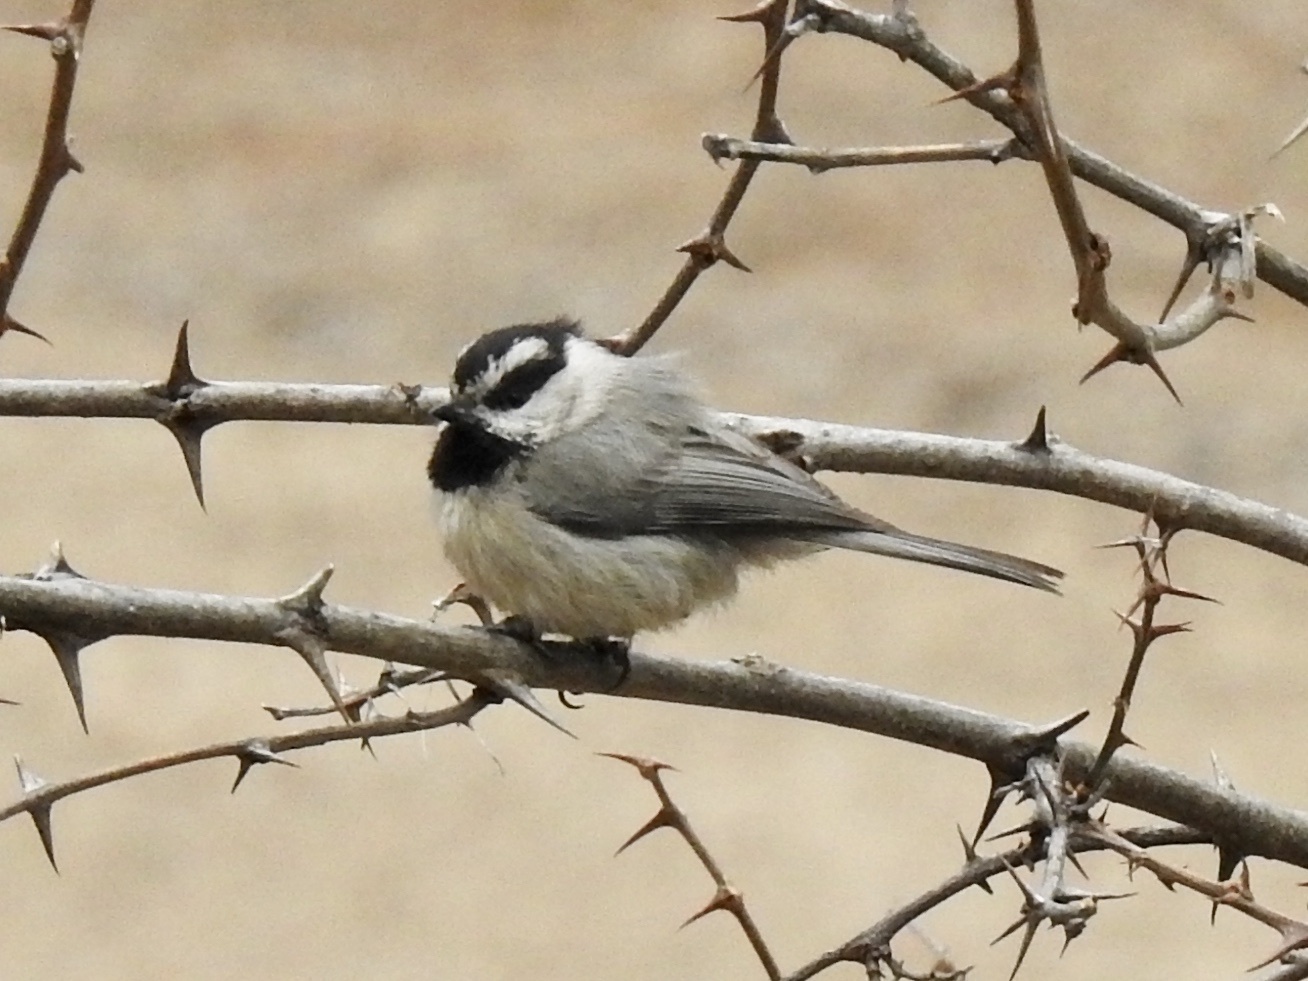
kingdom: Animalia
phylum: Chordata
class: Aves
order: Passeriformes
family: Paridae
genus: Poecile
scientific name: Poecile gambeli
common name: Mountain chickadee
